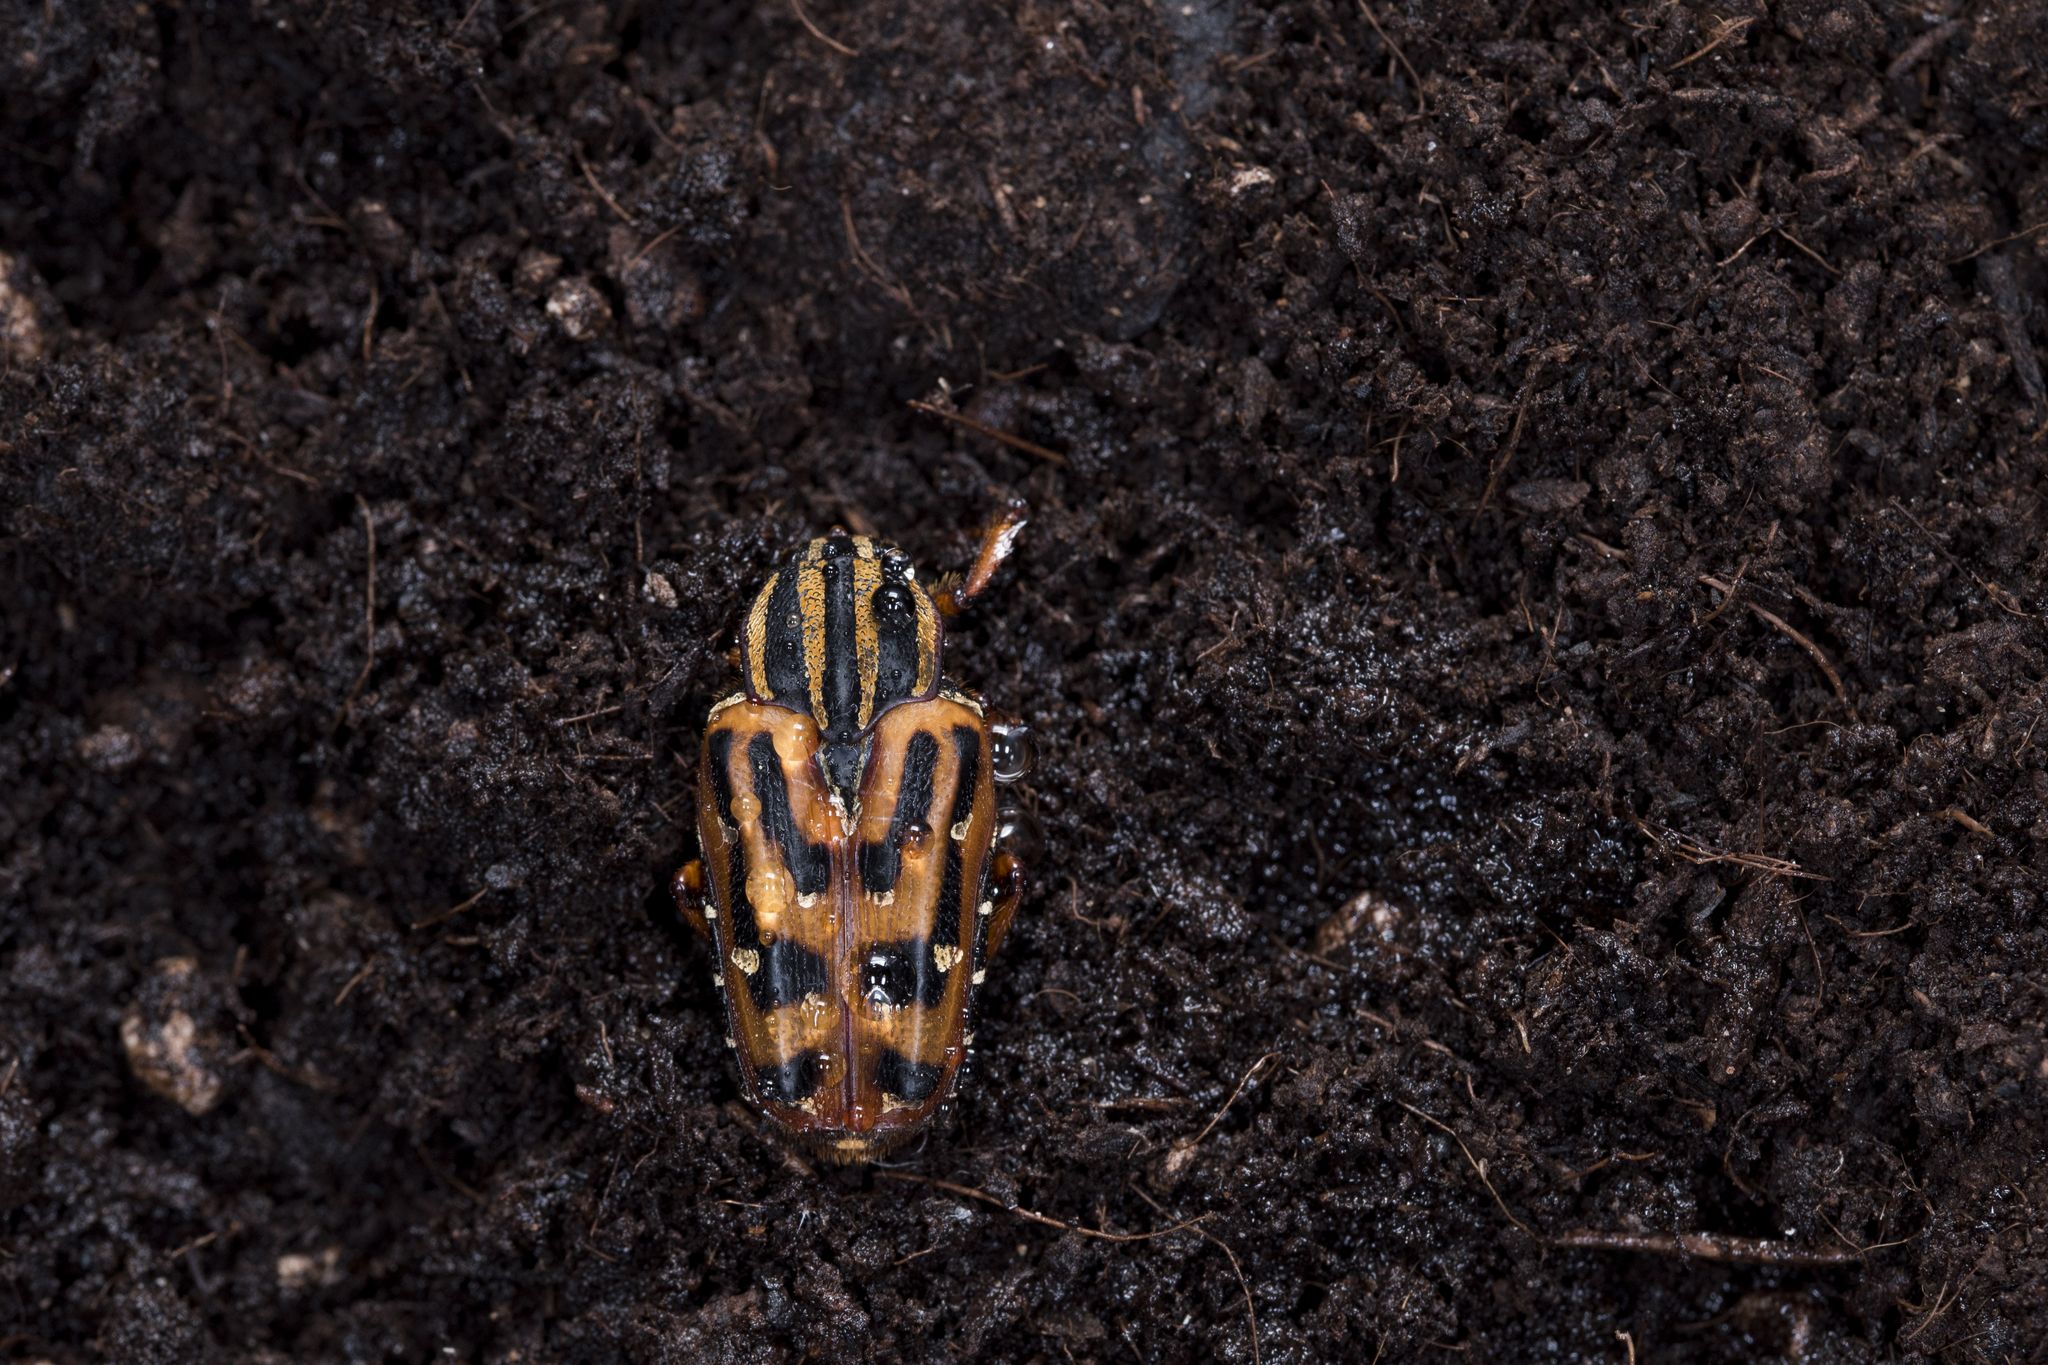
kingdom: Animalia
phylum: Arthropoda
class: Insecta
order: Coleoptera
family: Scarabaeidae
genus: Euselates
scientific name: Euselates perraudierii
